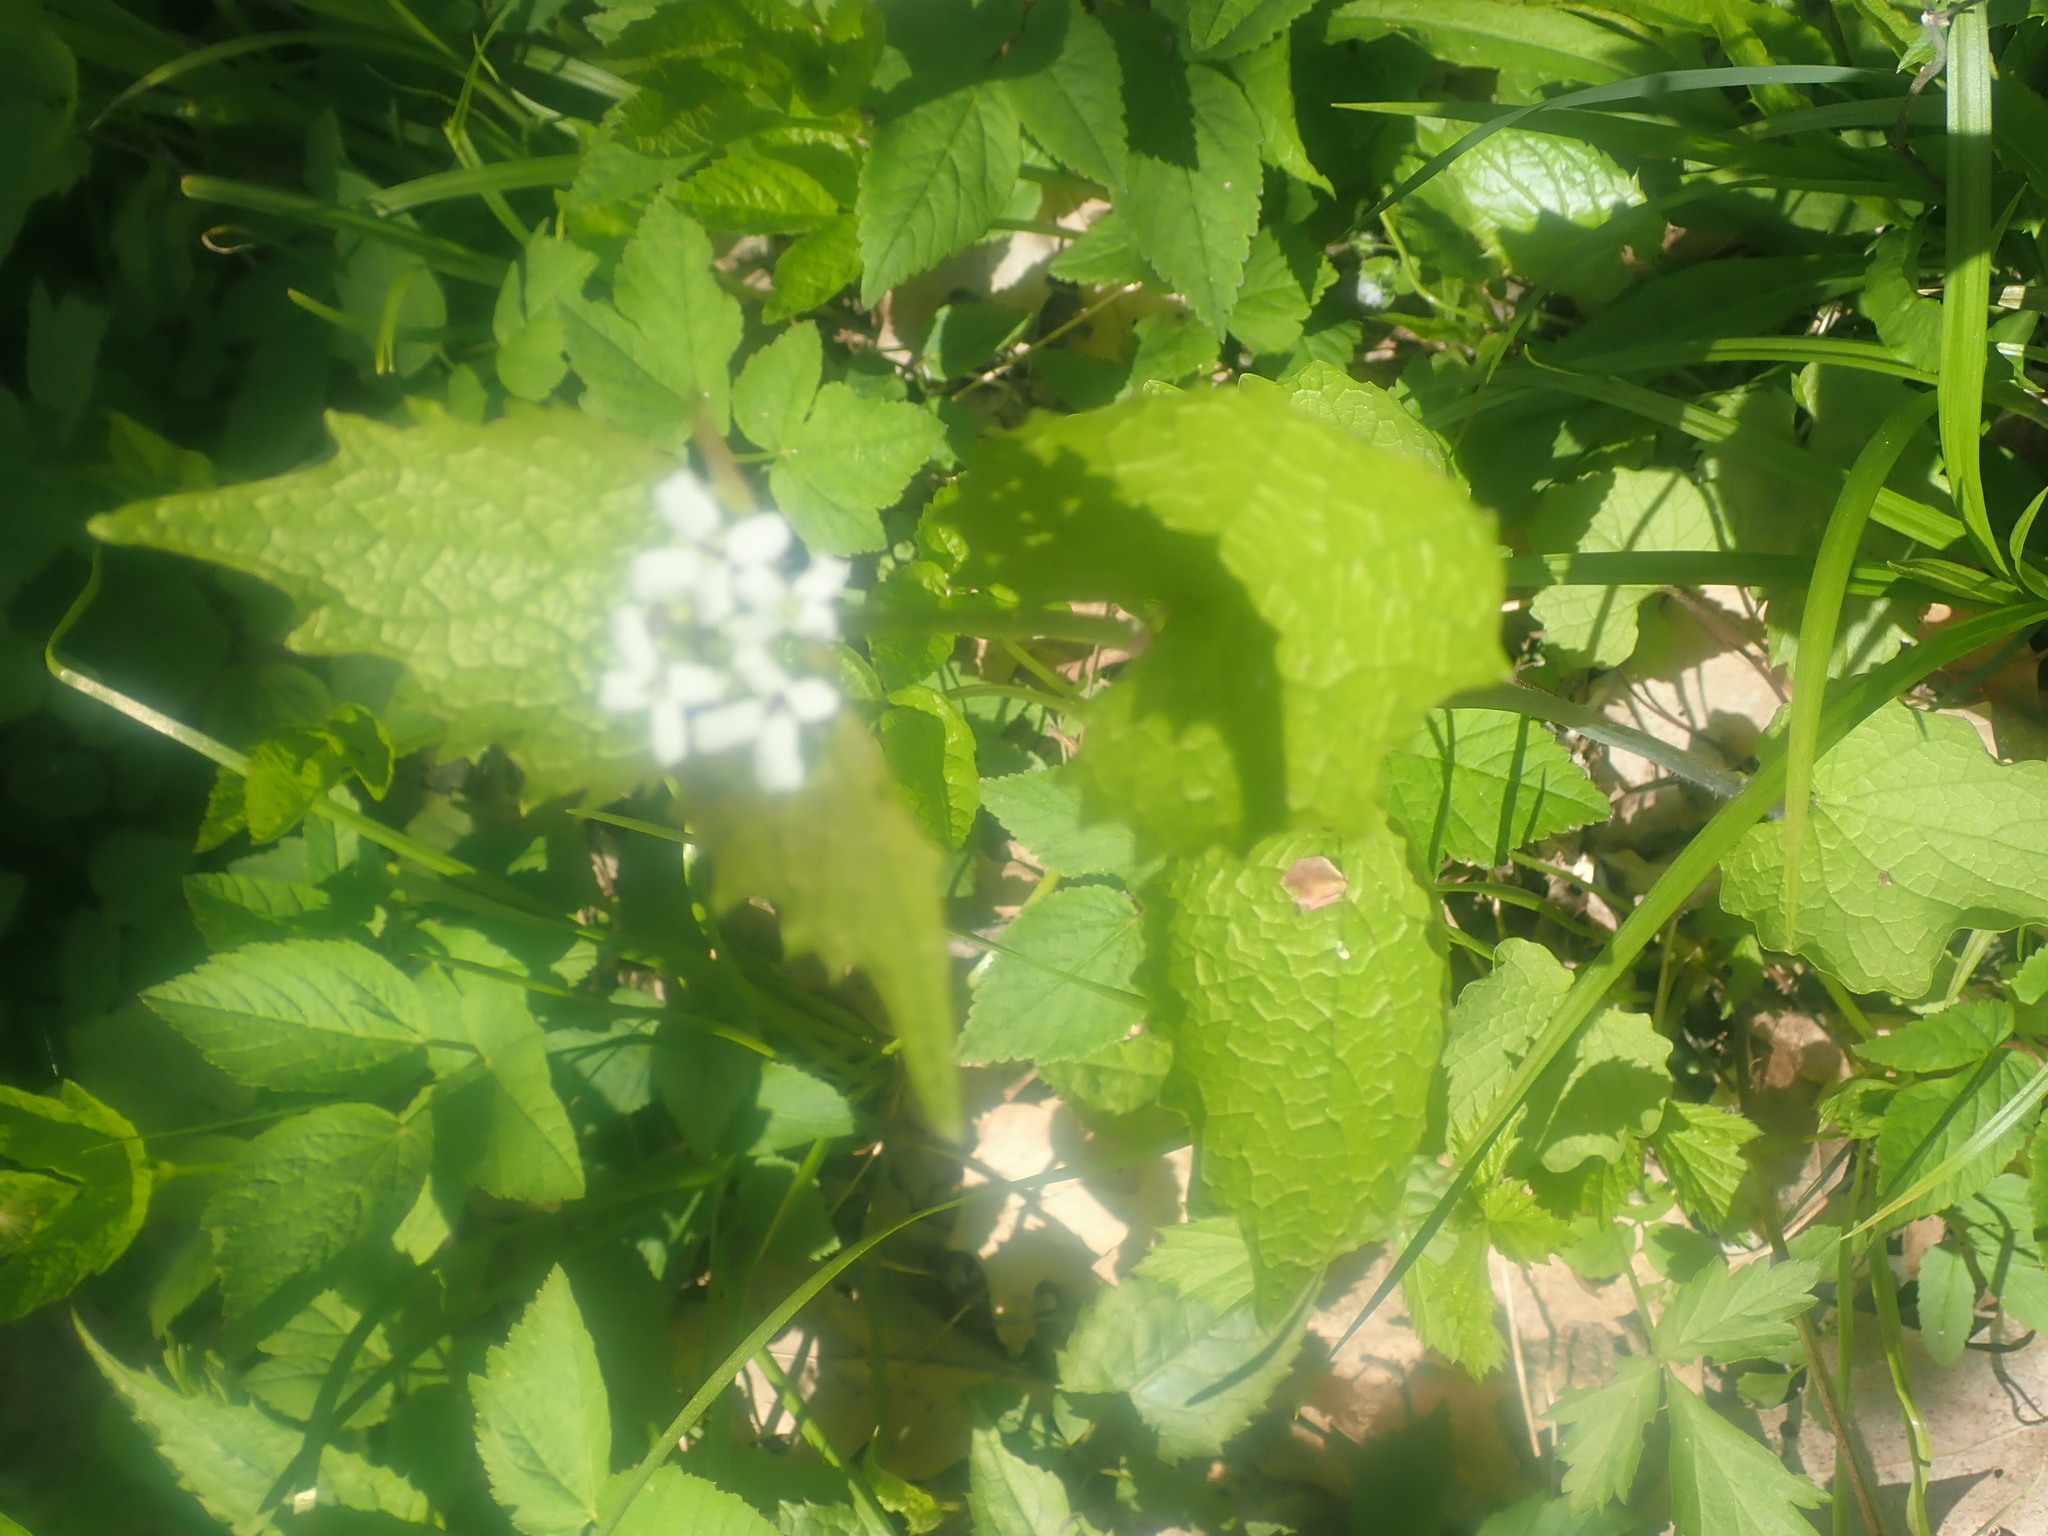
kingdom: Plantae
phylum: Tracheophyta
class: Magnoliopsida
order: Brassicales
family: Brassicaceae
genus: Alliaria
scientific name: Alliaria petiolata
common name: Garlic mustard
